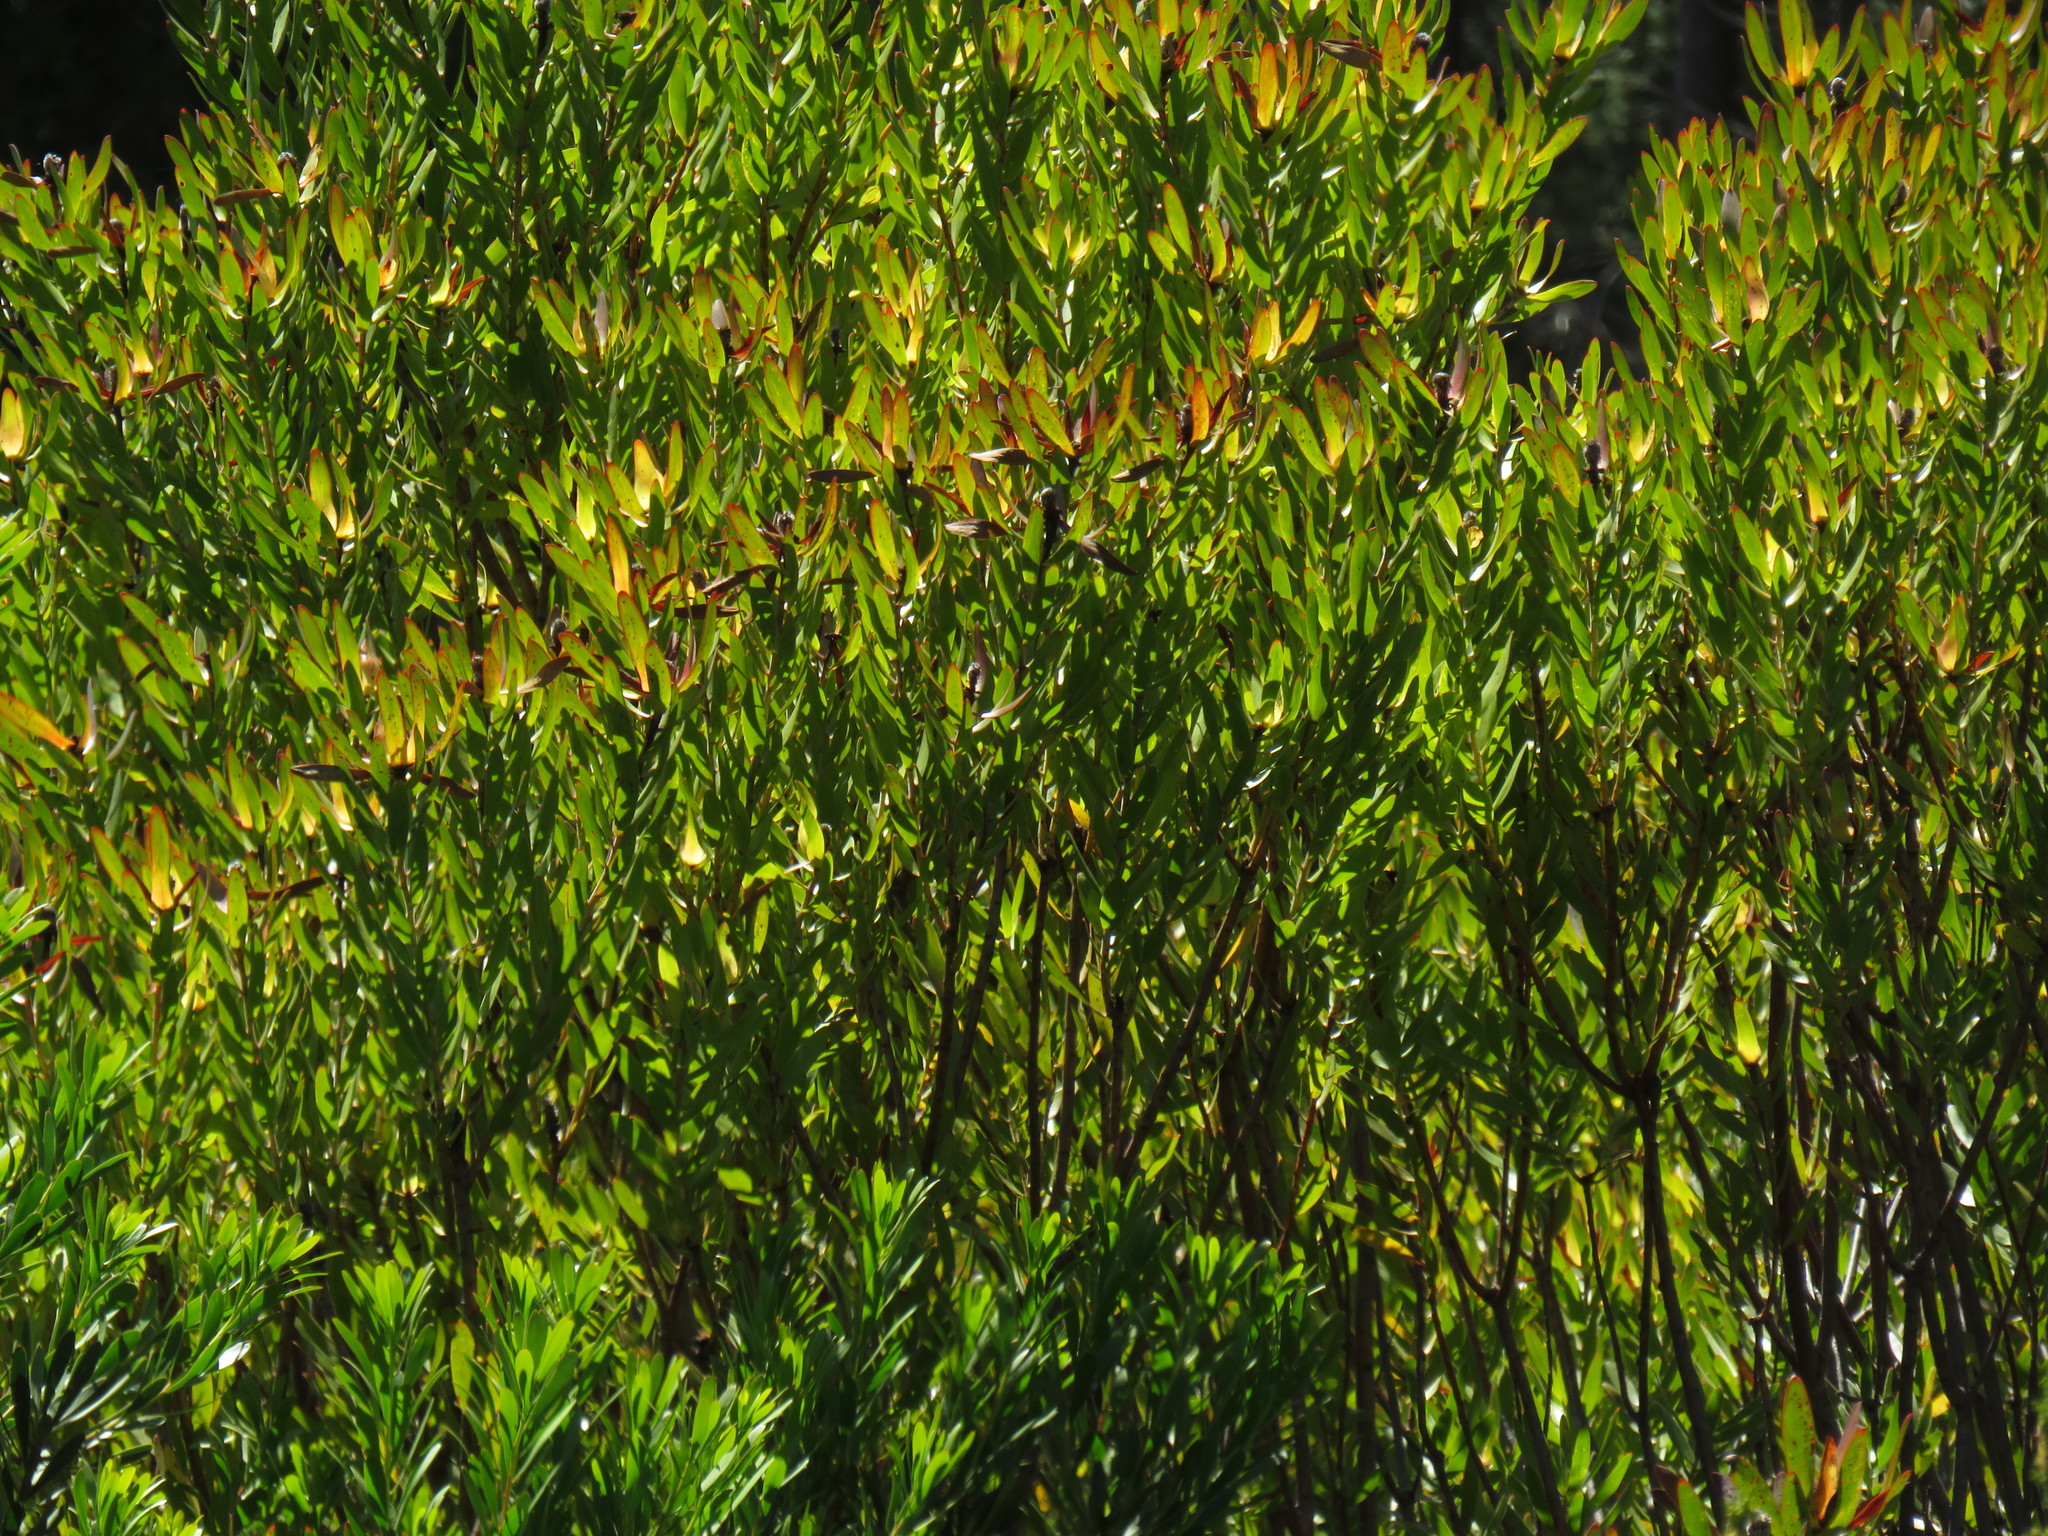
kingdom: Plantae
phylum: Tracheophyta
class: Magnoliopsida
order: Proteales
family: Proteaceae
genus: Leucadendron
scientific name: Leucadendron laureolum
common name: Golden sunshinebush
